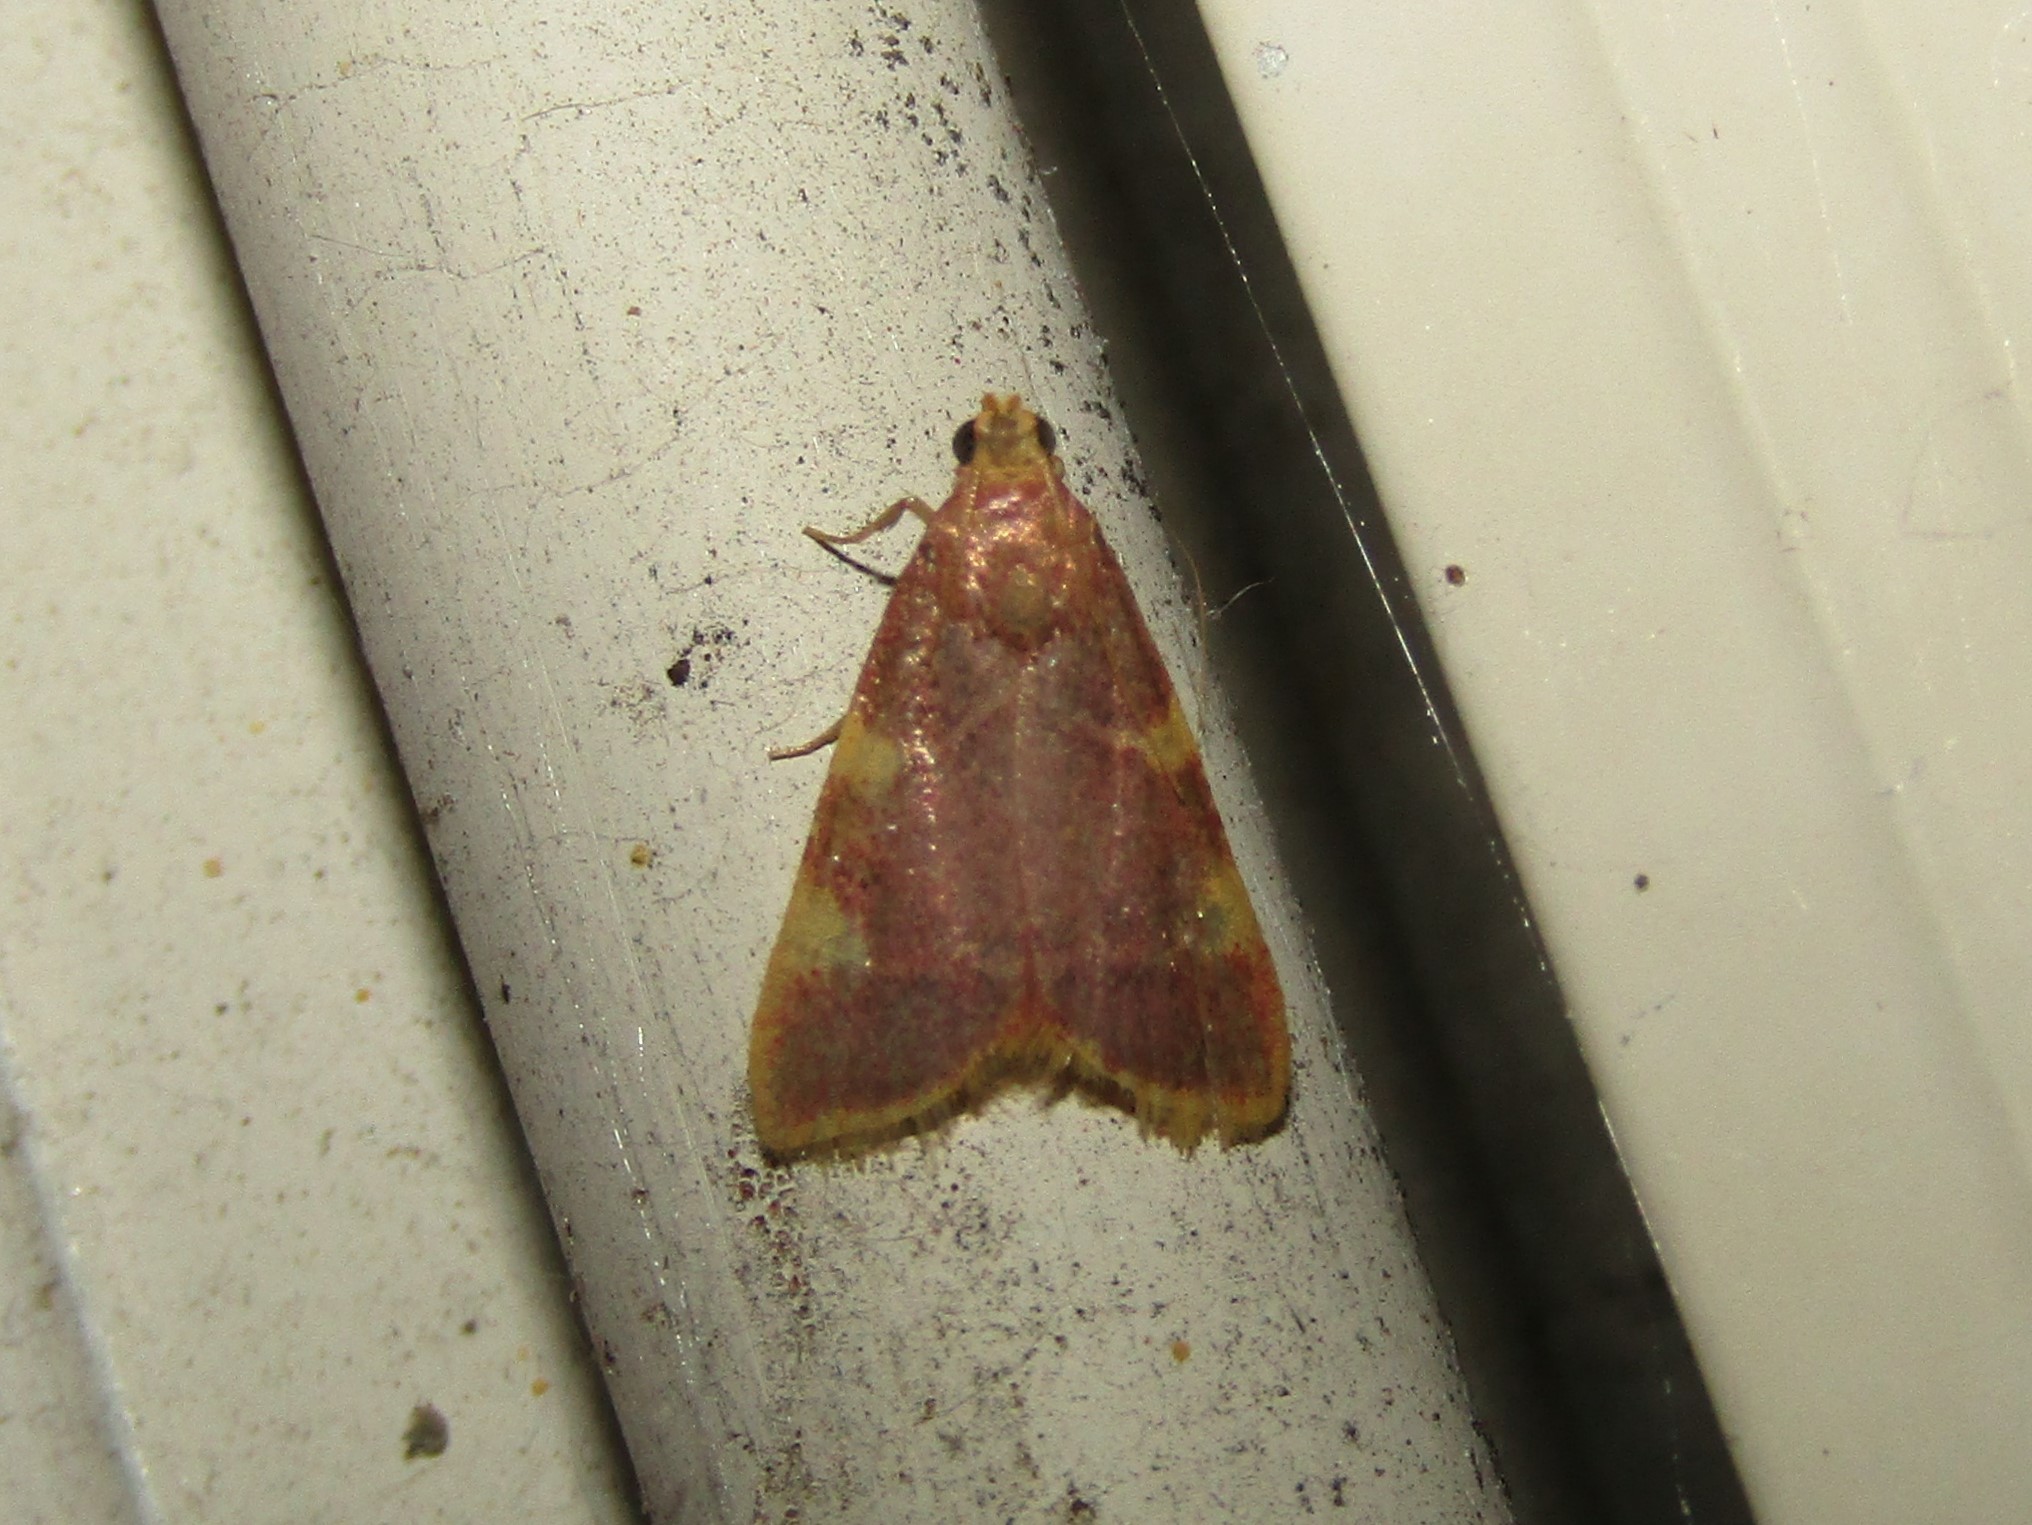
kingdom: Animalia
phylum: Arthropoda
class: Insecta
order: Lepidoptera
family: Pyralidae
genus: Hypsopygia
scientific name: Hypsopygia costalis
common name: Gold triangle
